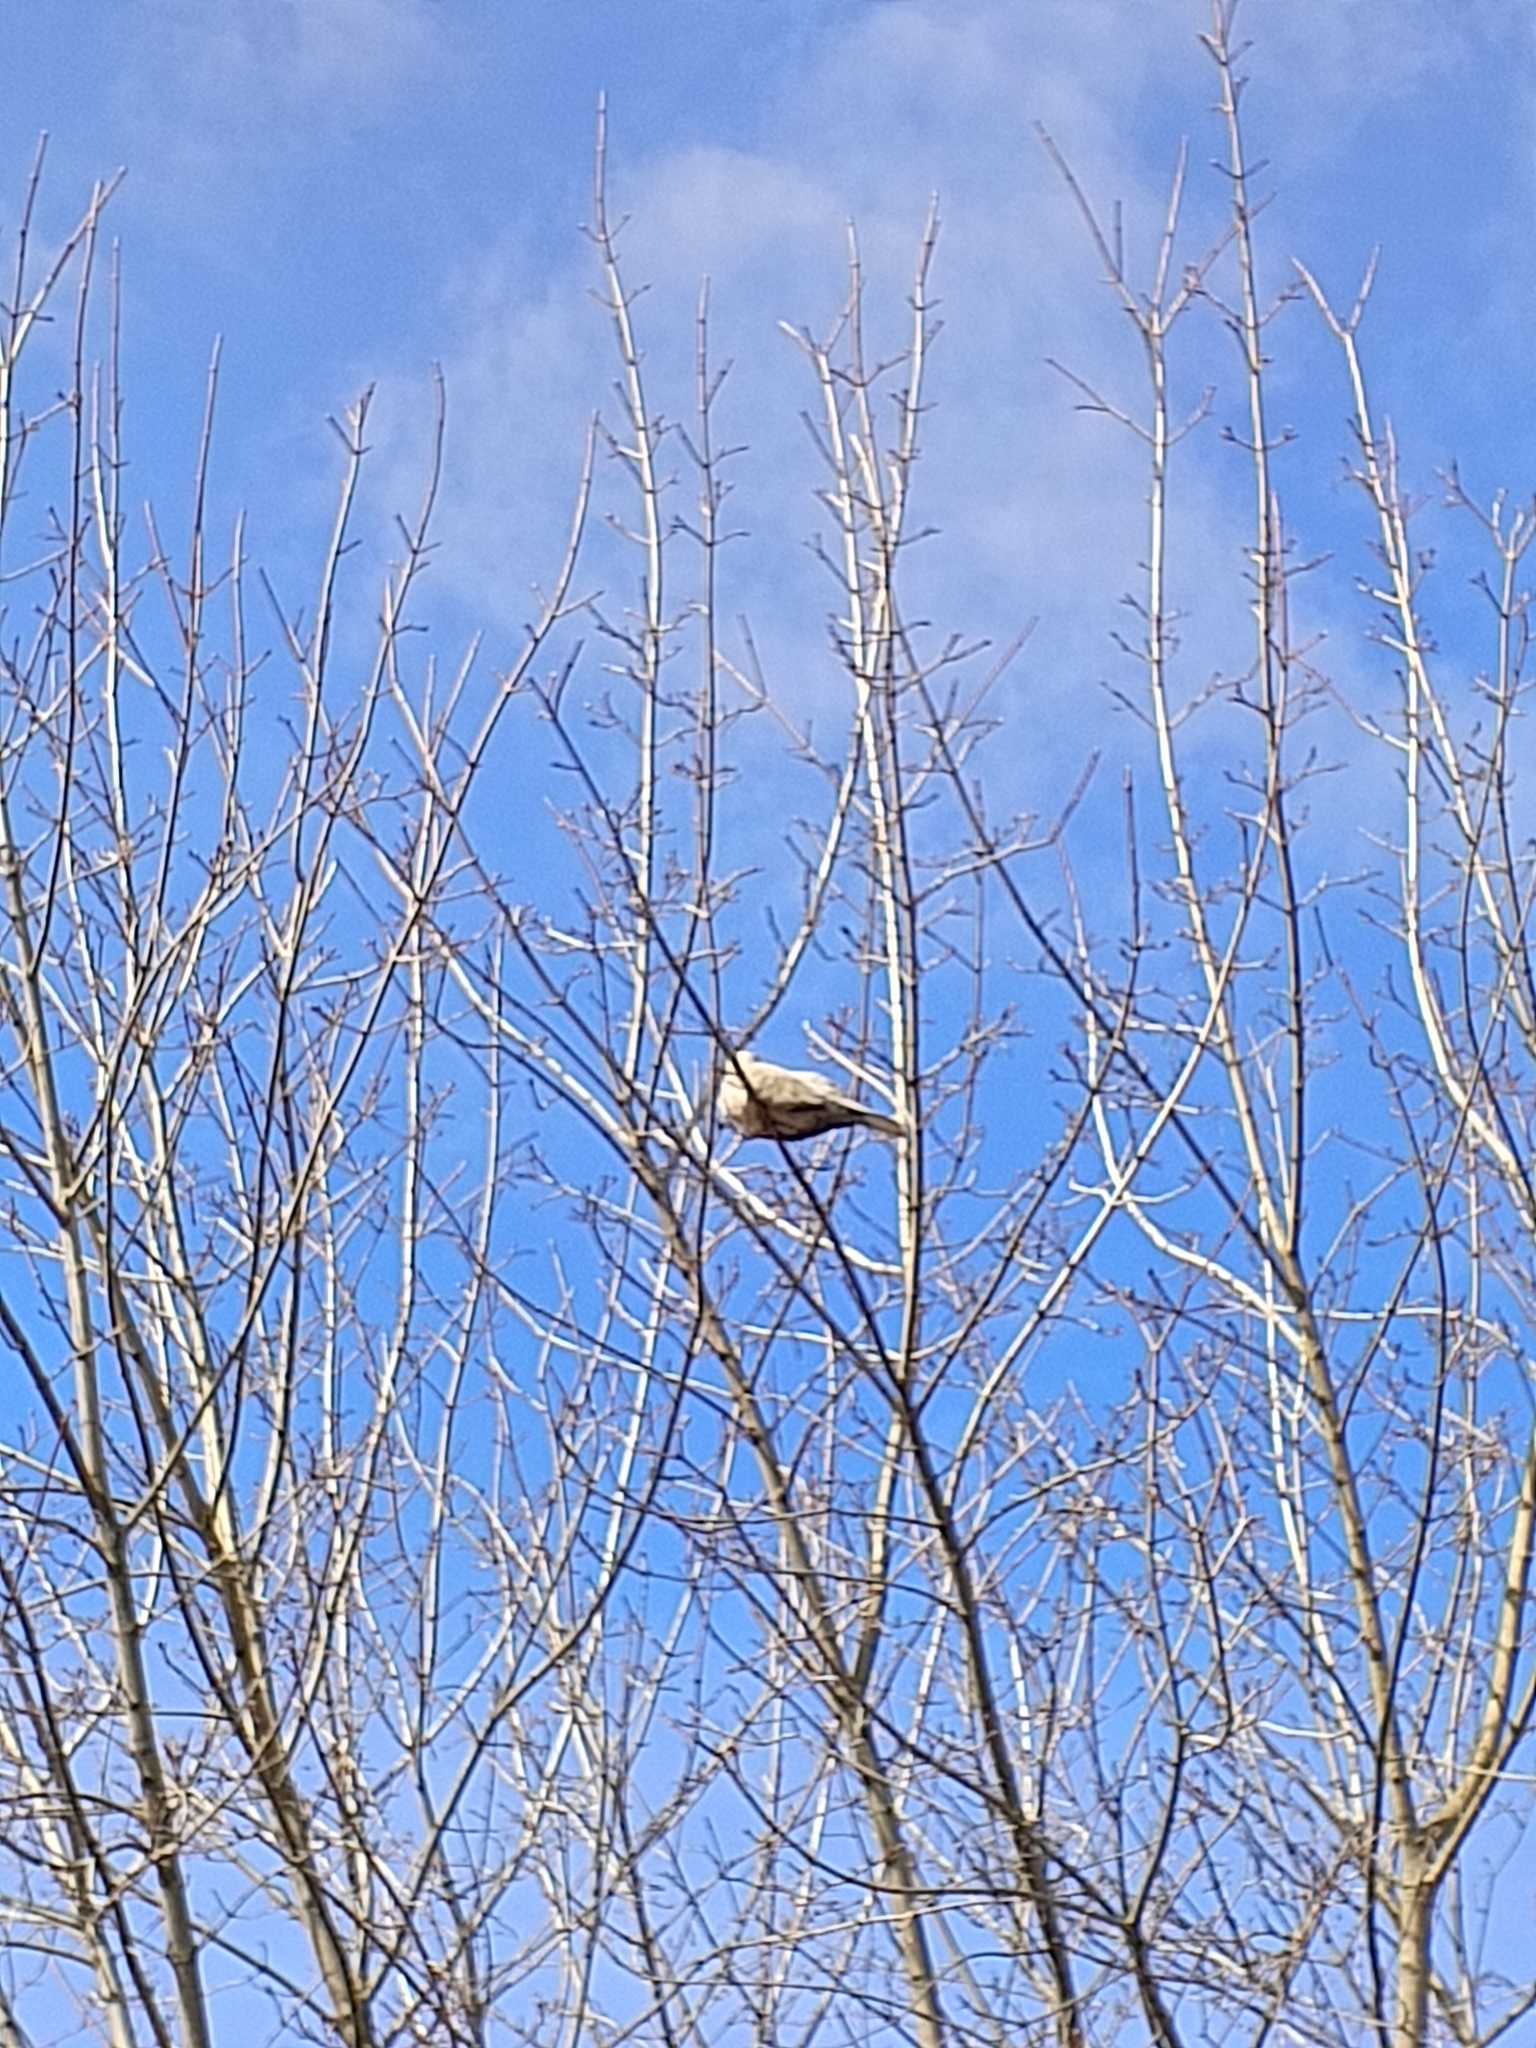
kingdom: Animalia
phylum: Chordata
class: Aves
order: Columbiformes
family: Columbidae
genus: Streptopelia
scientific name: Streptopelia decaocto
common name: Eurasian collared dove
